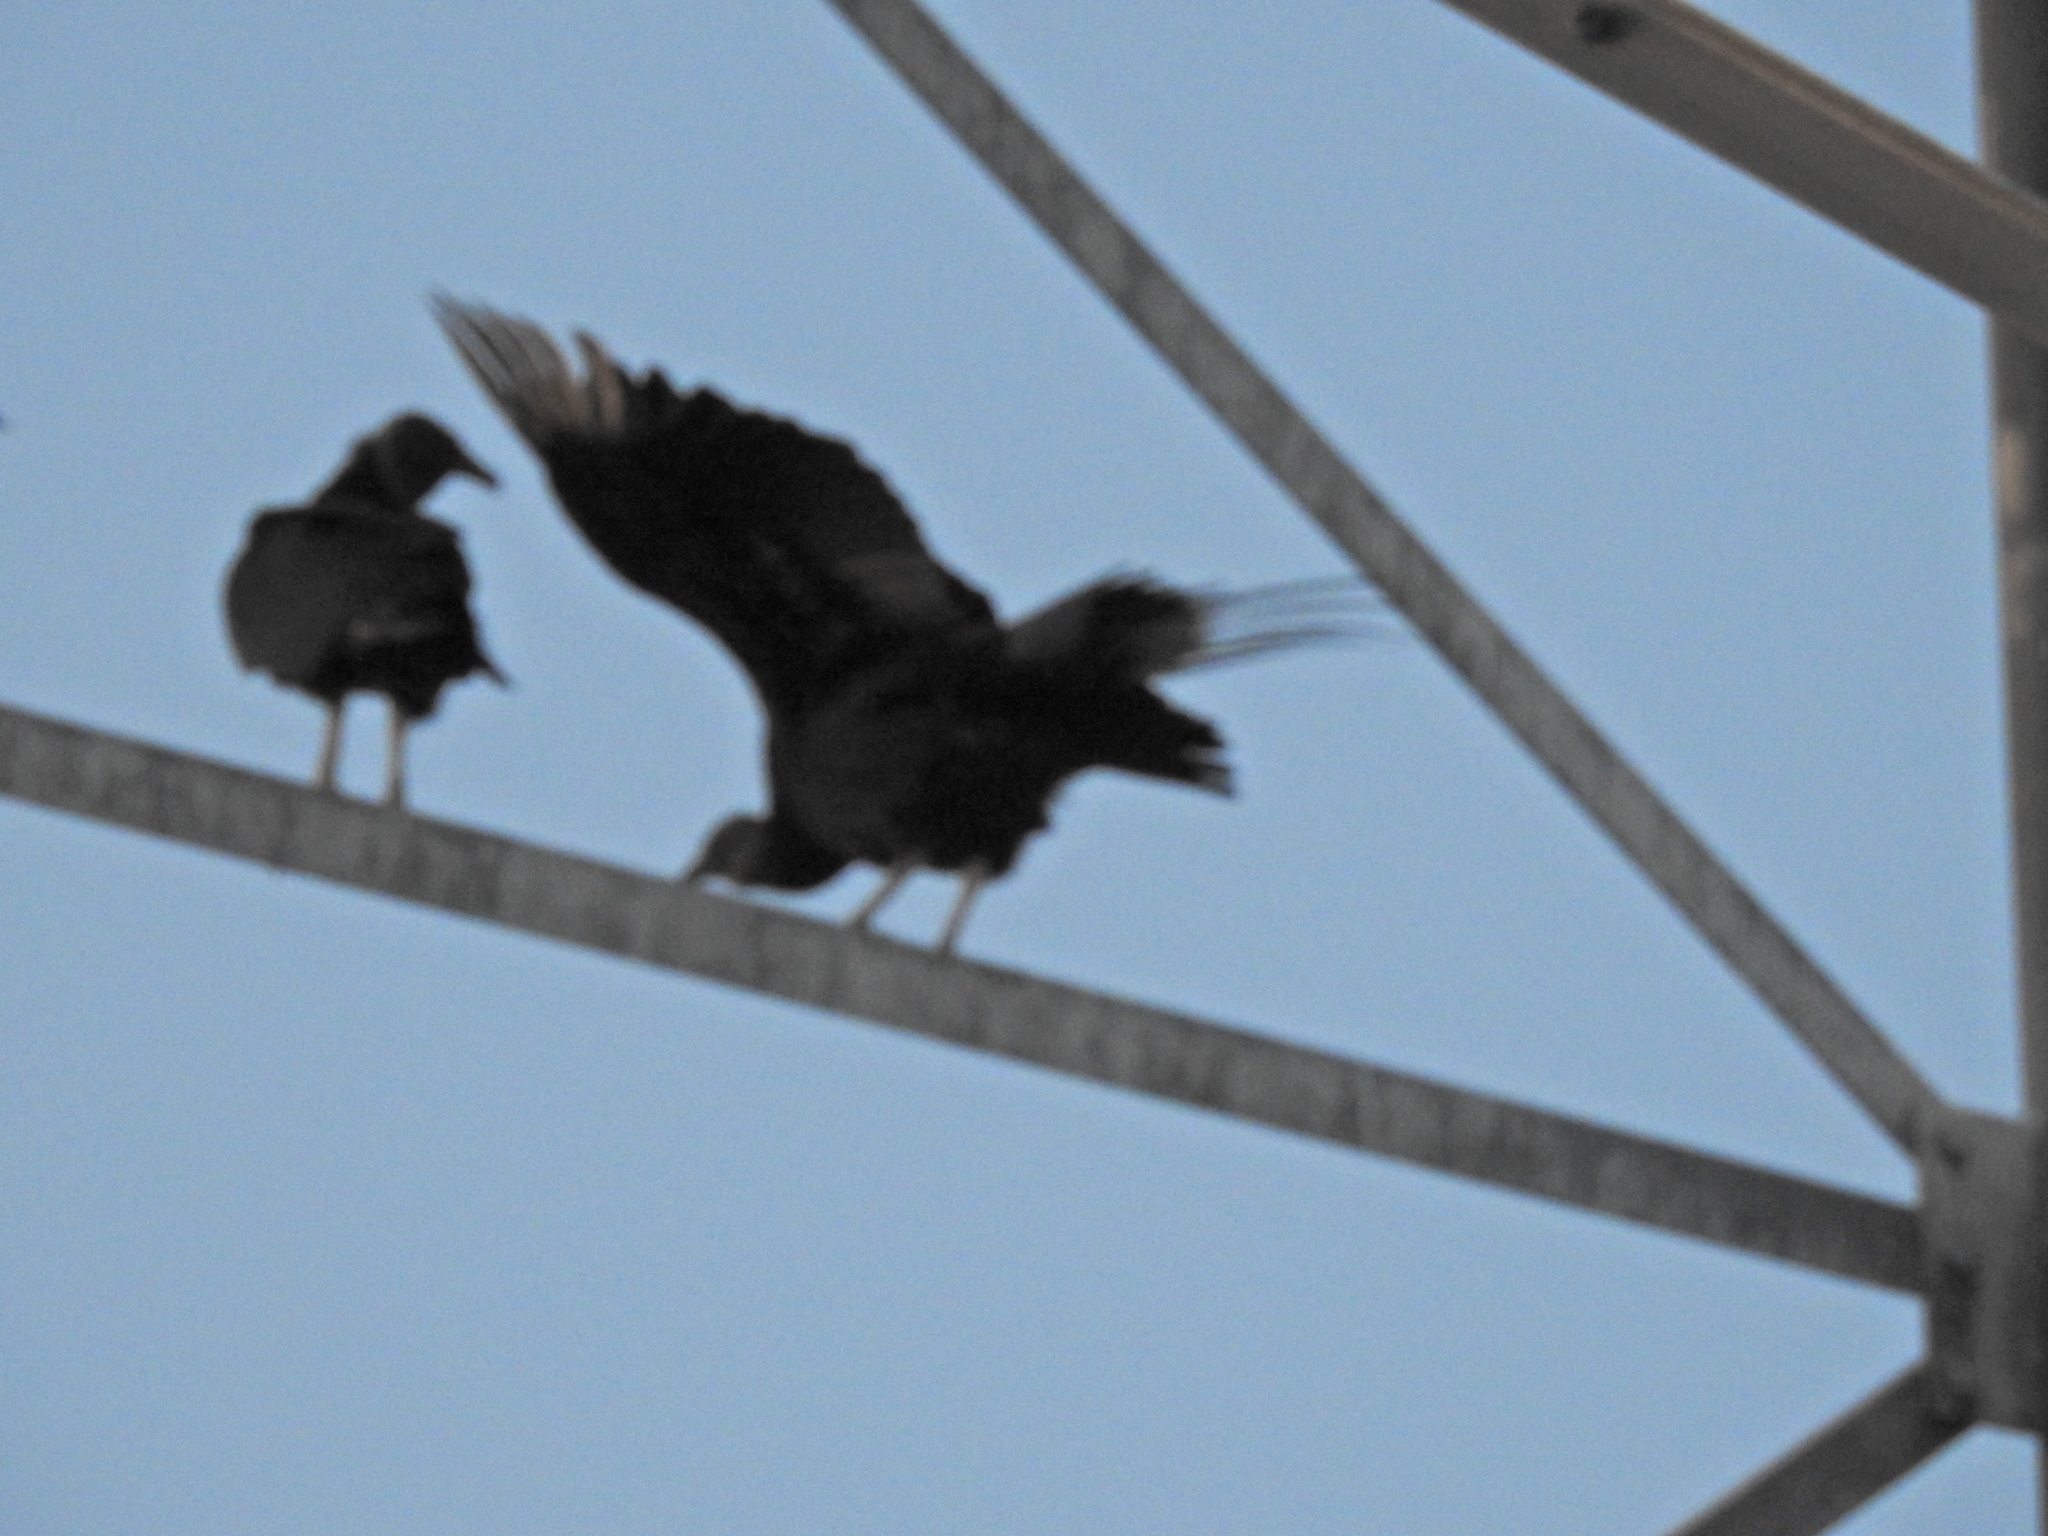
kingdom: Animalia
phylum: Chordata
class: Aves
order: Accipitriformes
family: Cathartidae
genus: Coragyps
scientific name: Coragyps atratus
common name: Black vulture
